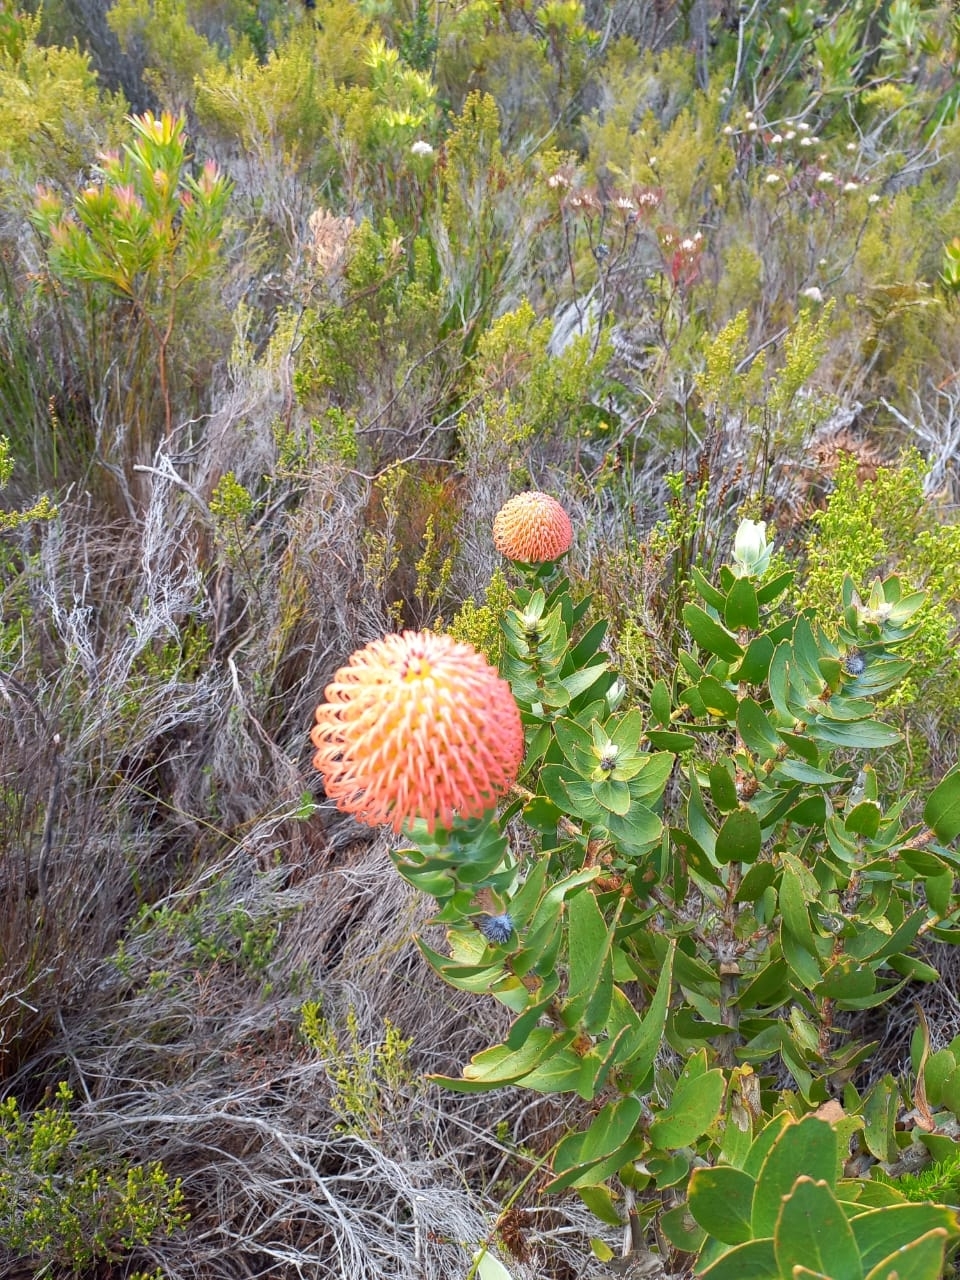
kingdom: Plantae
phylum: Tracheophyta
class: Magnoliopsida
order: Proteales
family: Proteaceae
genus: Leucospermum
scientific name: Leucospermum cordifolium
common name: Red pincushion-protea
